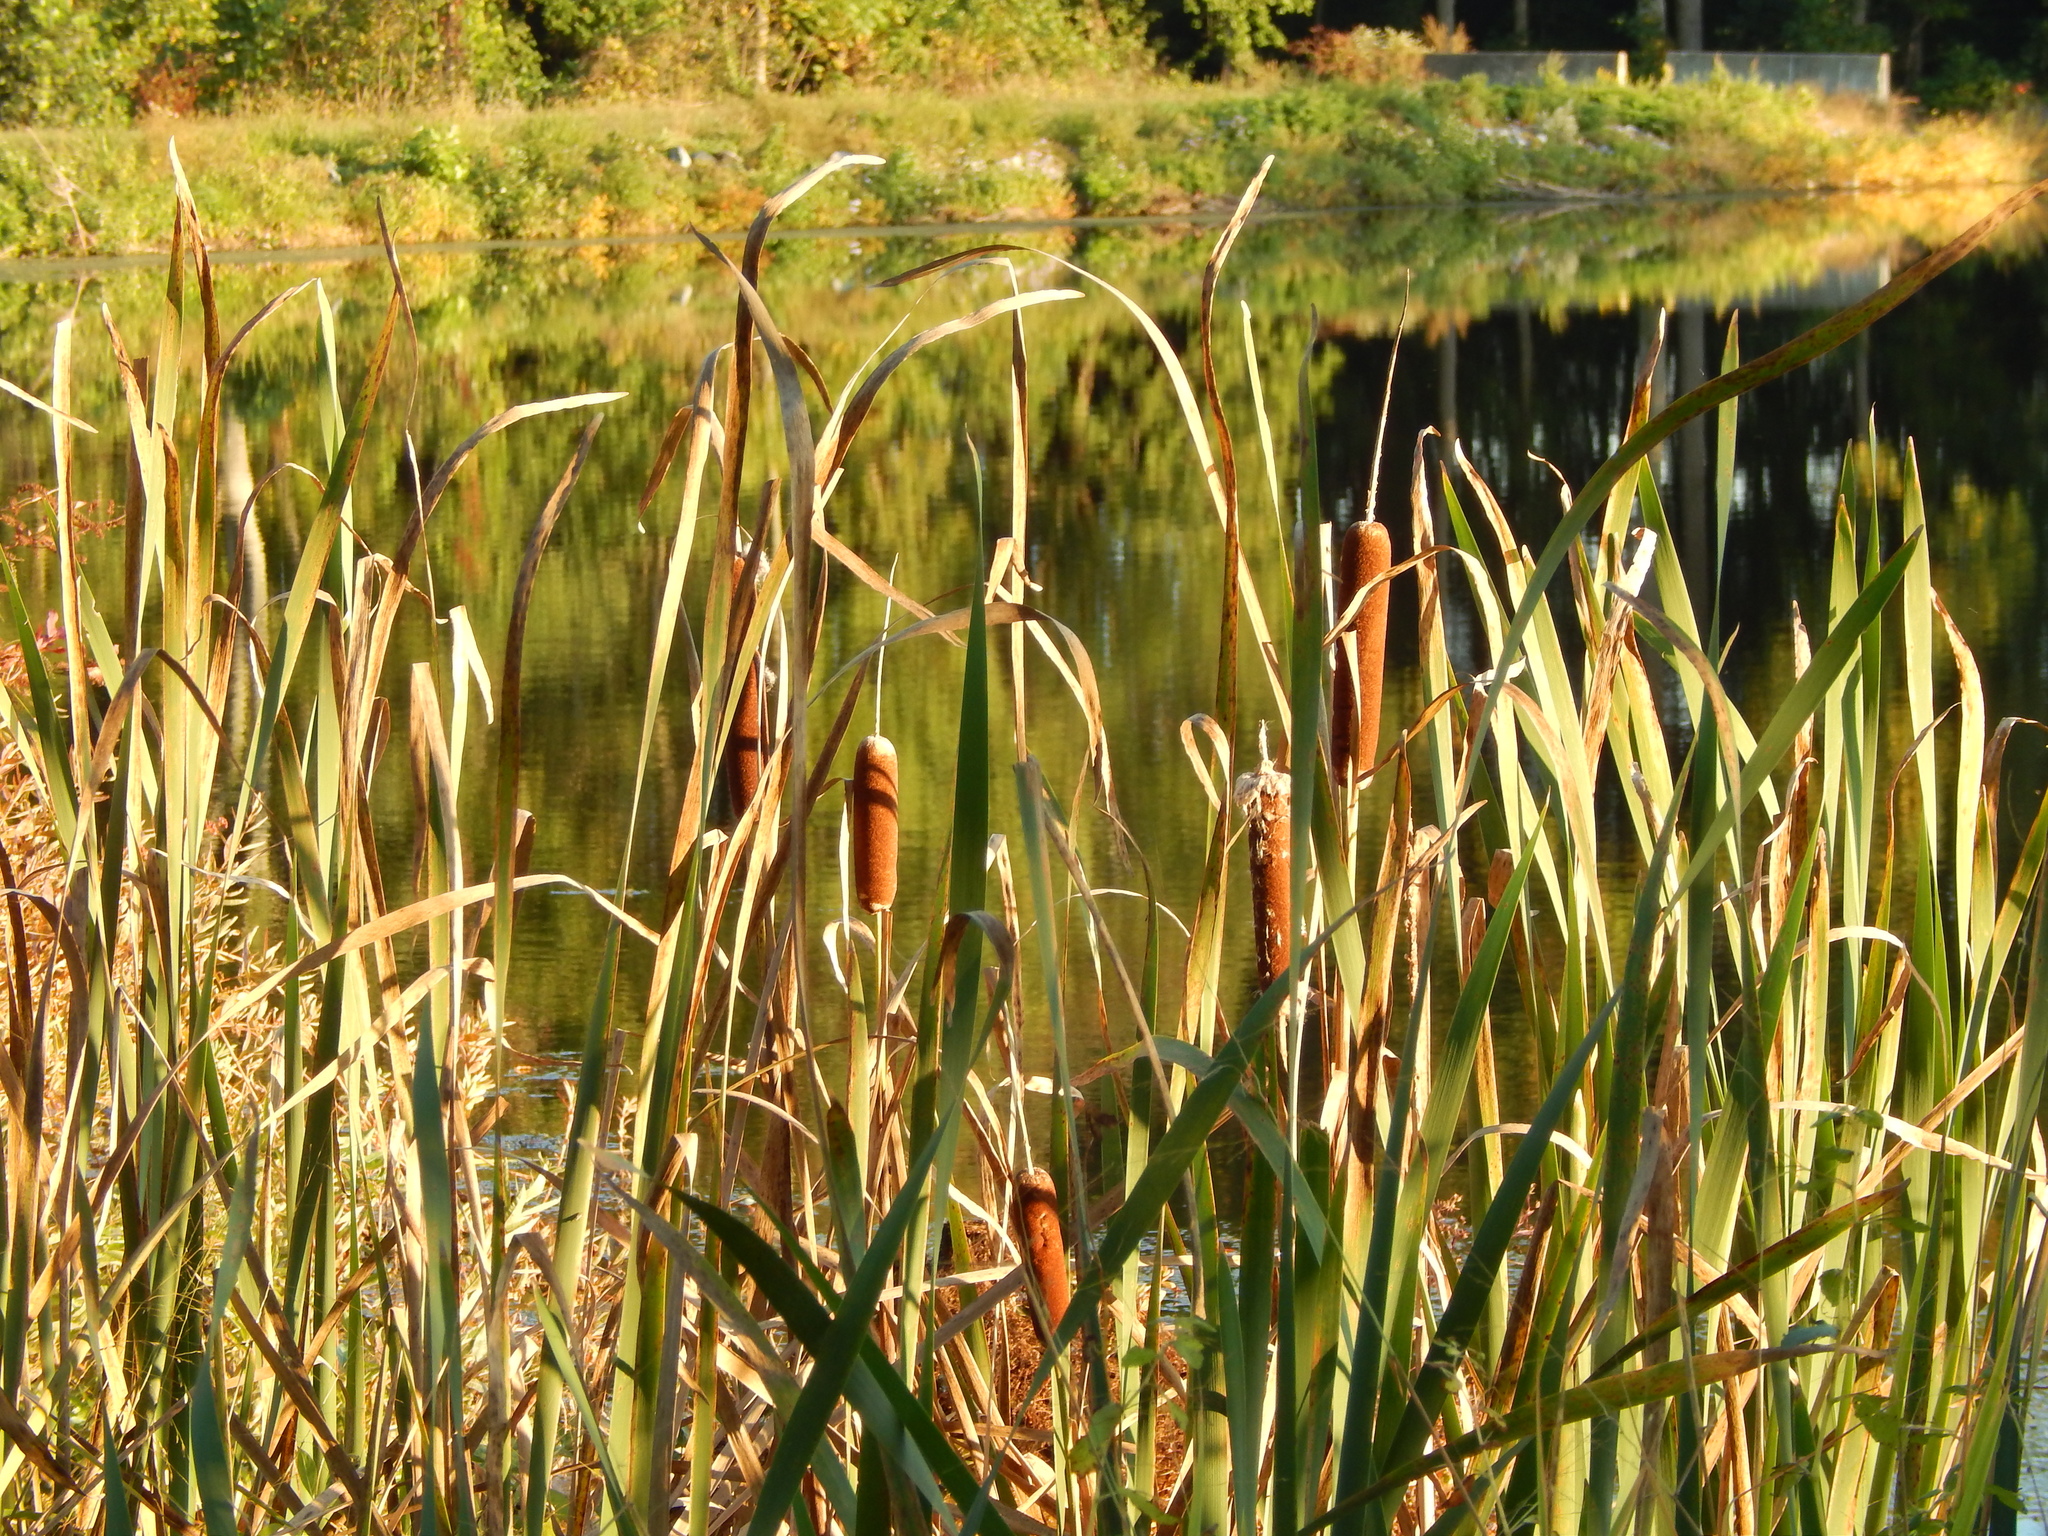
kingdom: Plantae
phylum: Tracheophyta
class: Liliopsida
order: Poales
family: Typhaceae
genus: Typha
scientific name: Typha latifolia
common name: Broadleaf cattail
